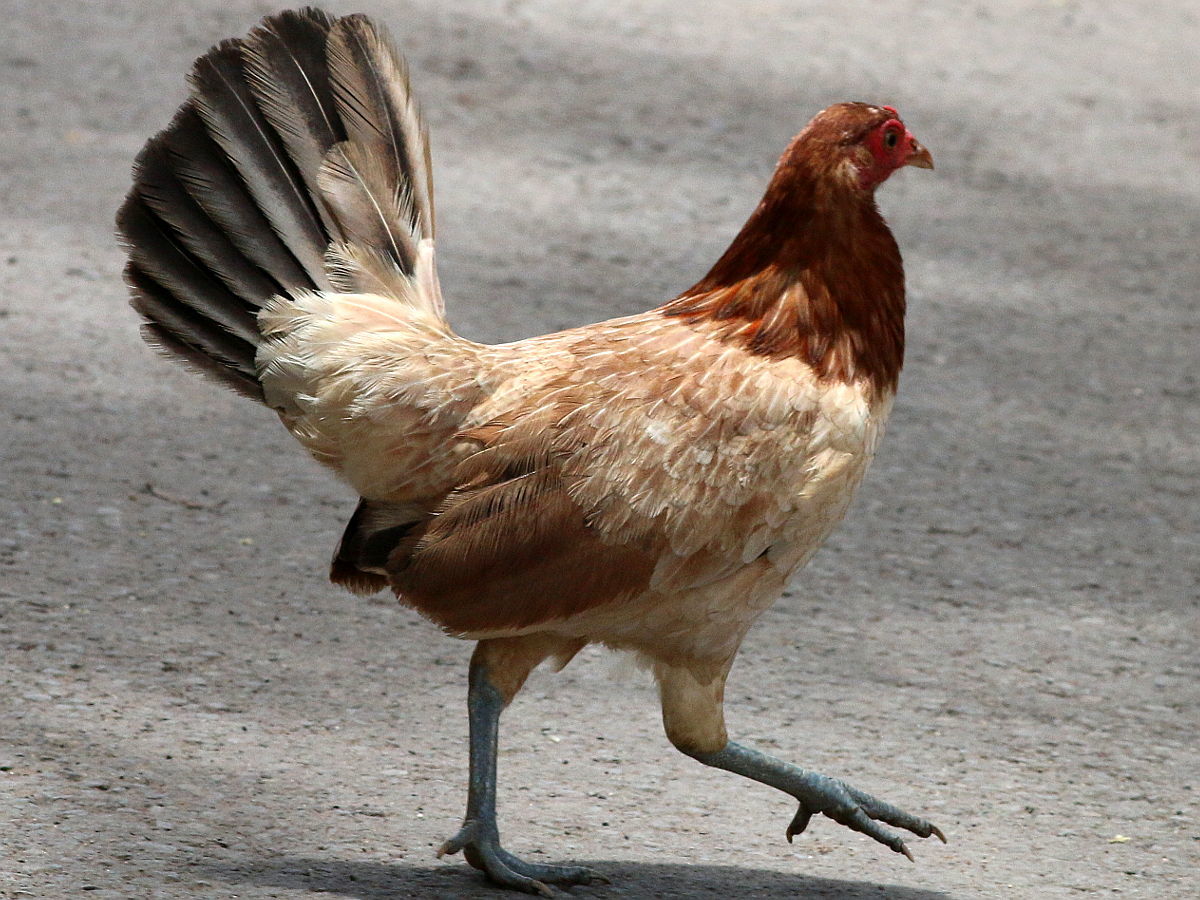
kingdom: Animalia
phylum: Chordata
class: Aves
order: Galliformes
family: Phasianidae
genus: Gallus
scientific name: Gallus gallus
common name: Red junglefowl
